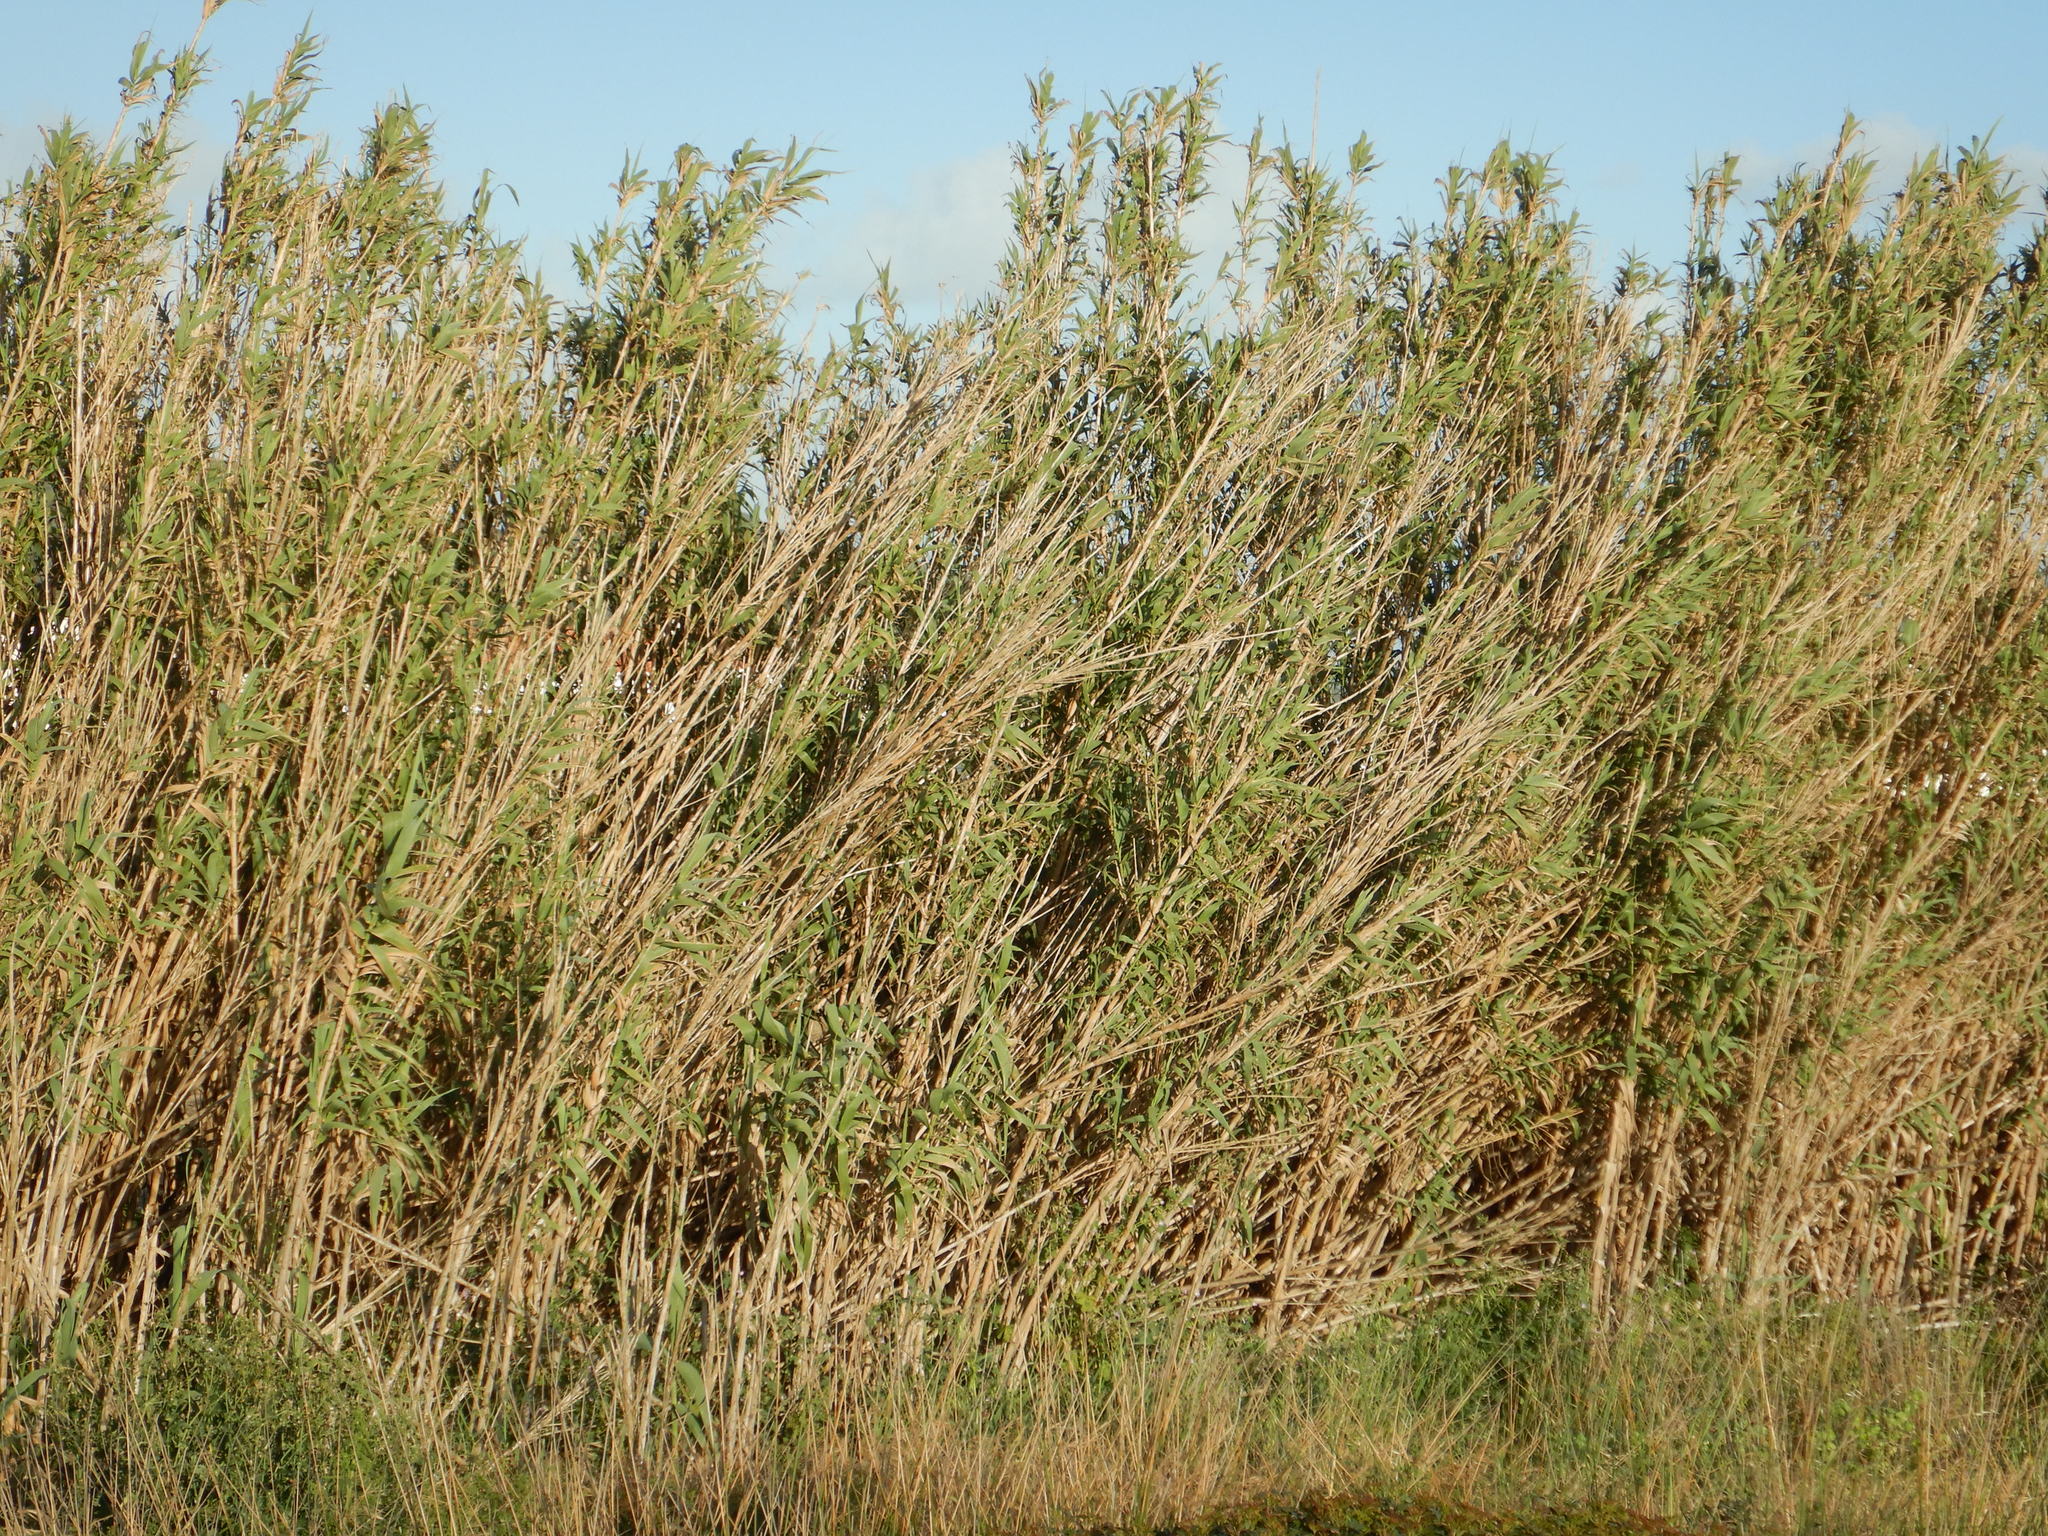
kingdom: Plantae
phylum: Tracheophyta
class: Liliopsida
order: Poales
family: Poaceae
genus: Arundo
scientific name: Arundo donax
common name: Giant reed
